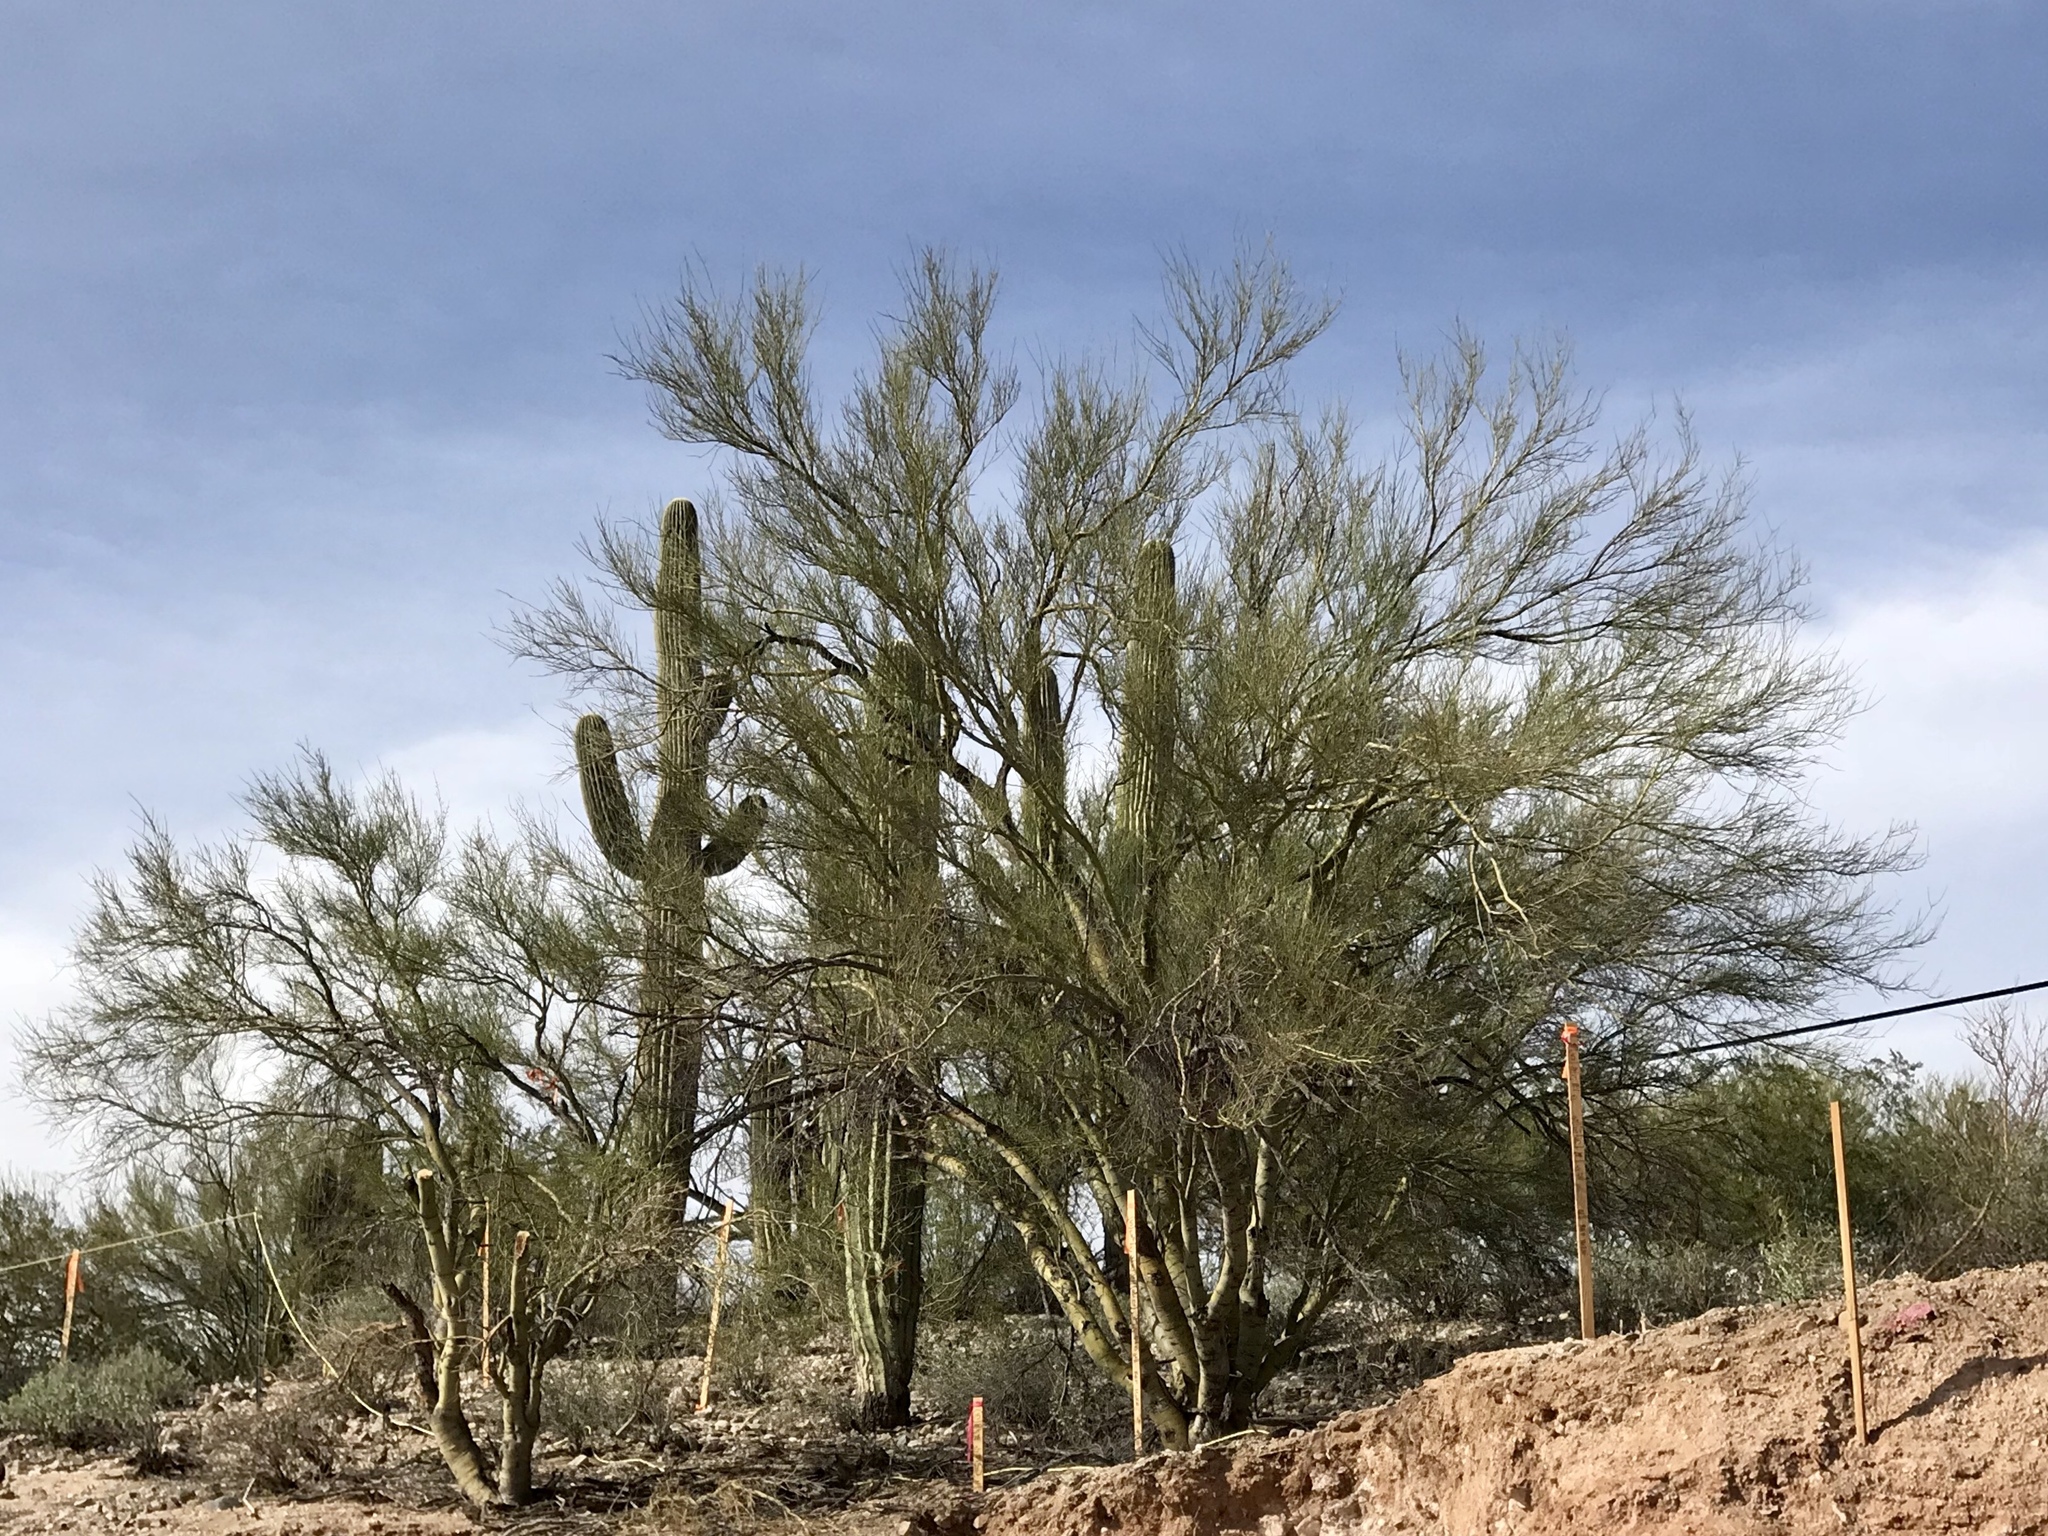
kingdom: Plantae
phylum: Tracheophyta
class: Magnoliopsida
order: Fabales
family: Fabaceae
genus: Parkinsonia
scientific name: Parkinsonia microphylla
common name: Yellow paloverde
